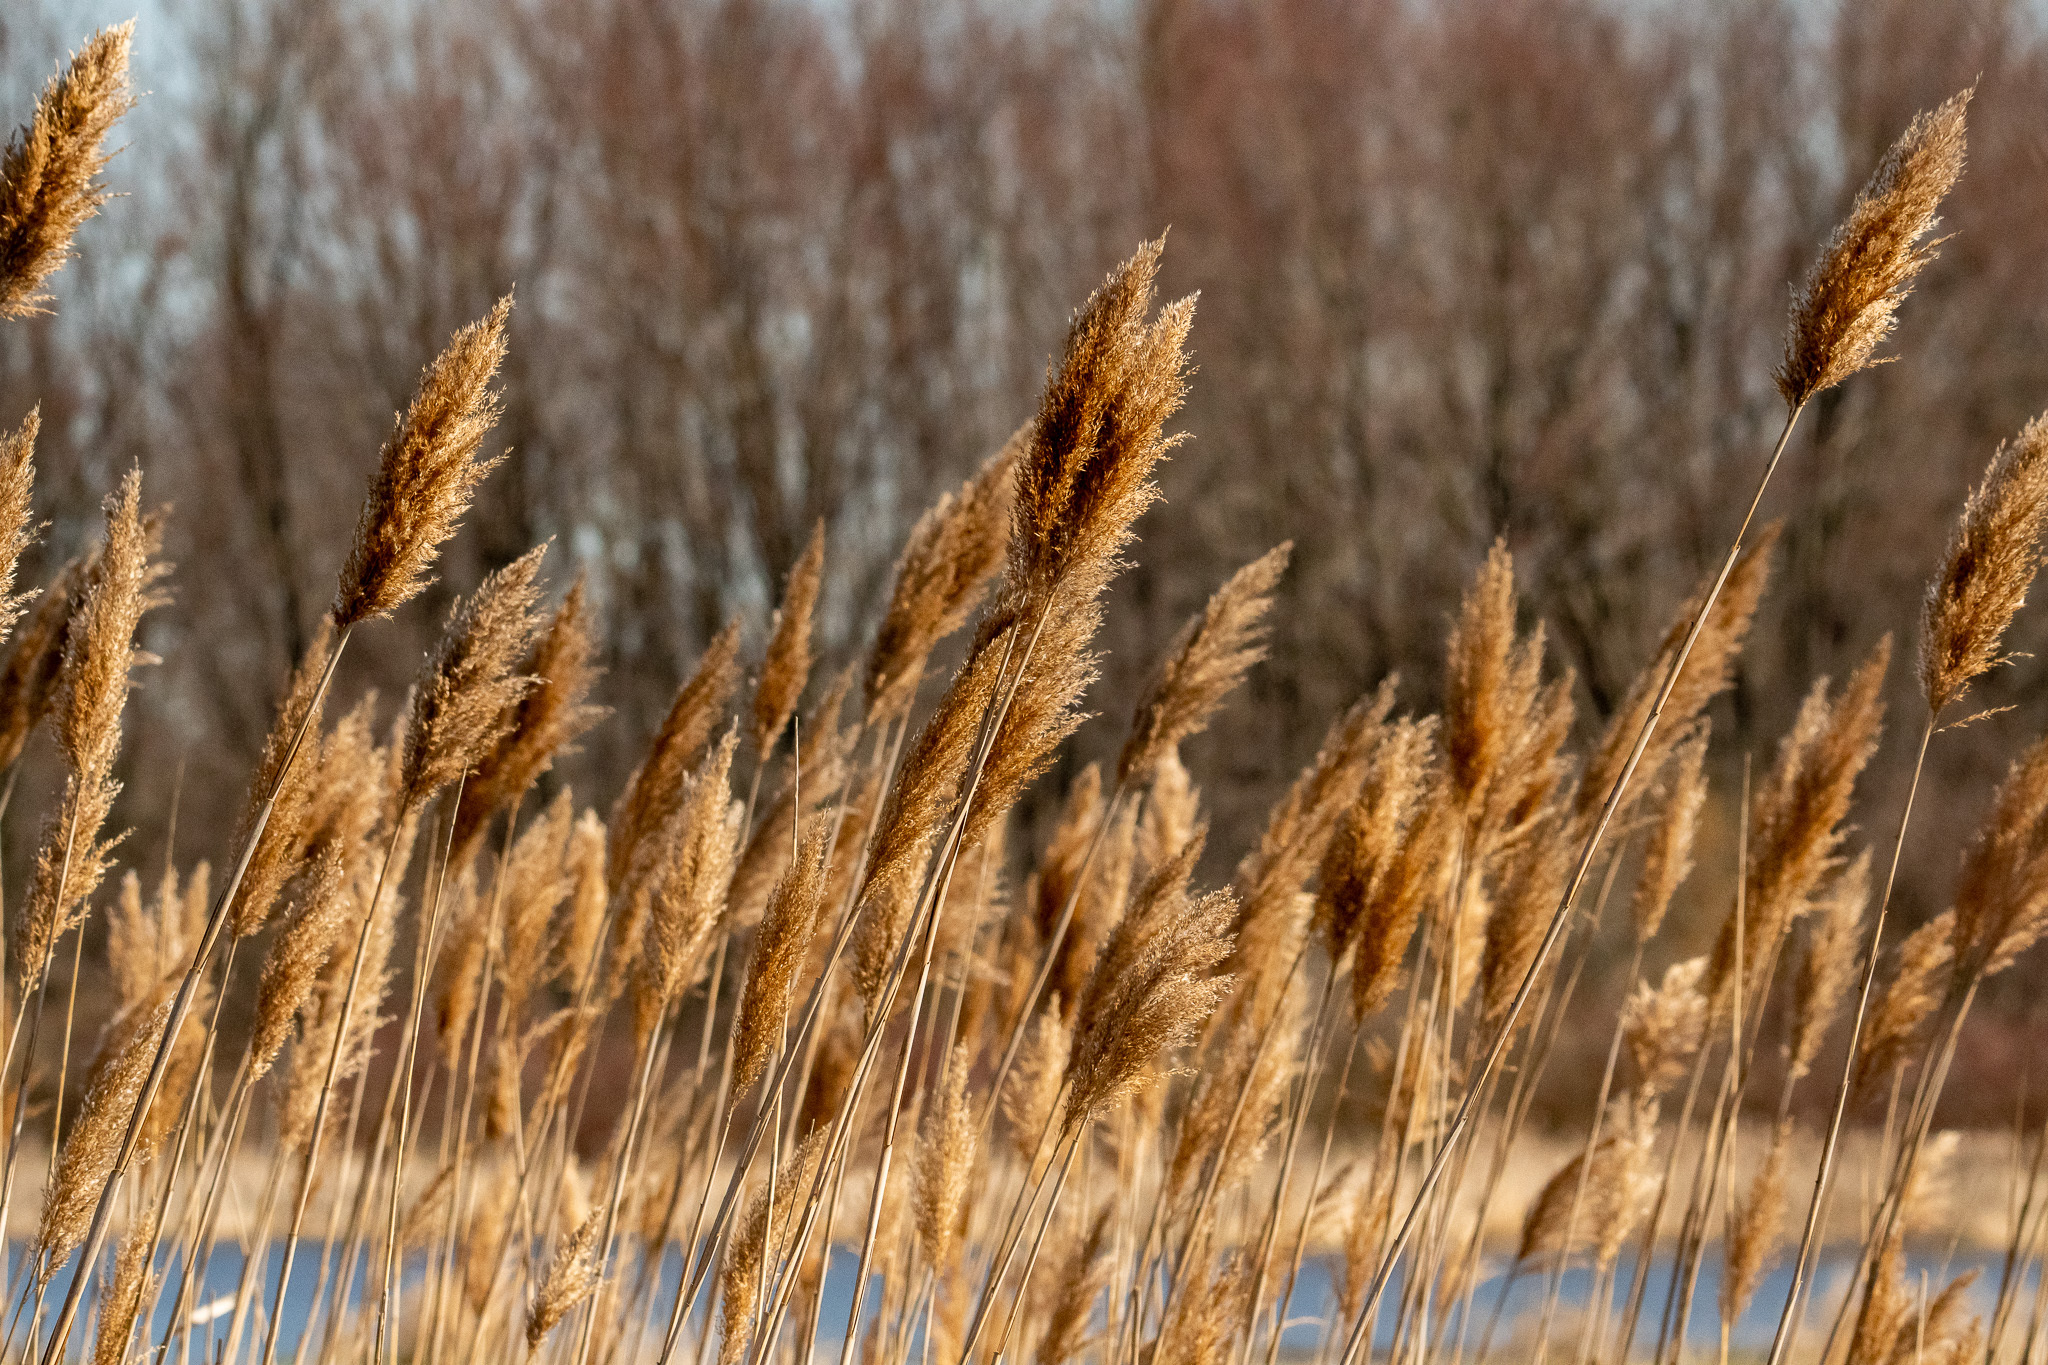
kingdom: Plantae
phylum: Tracheophyta
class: Liliopsida
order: Poales
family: Poaceae
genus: Phragmites
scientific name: Phragmites australis
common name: Common reed
